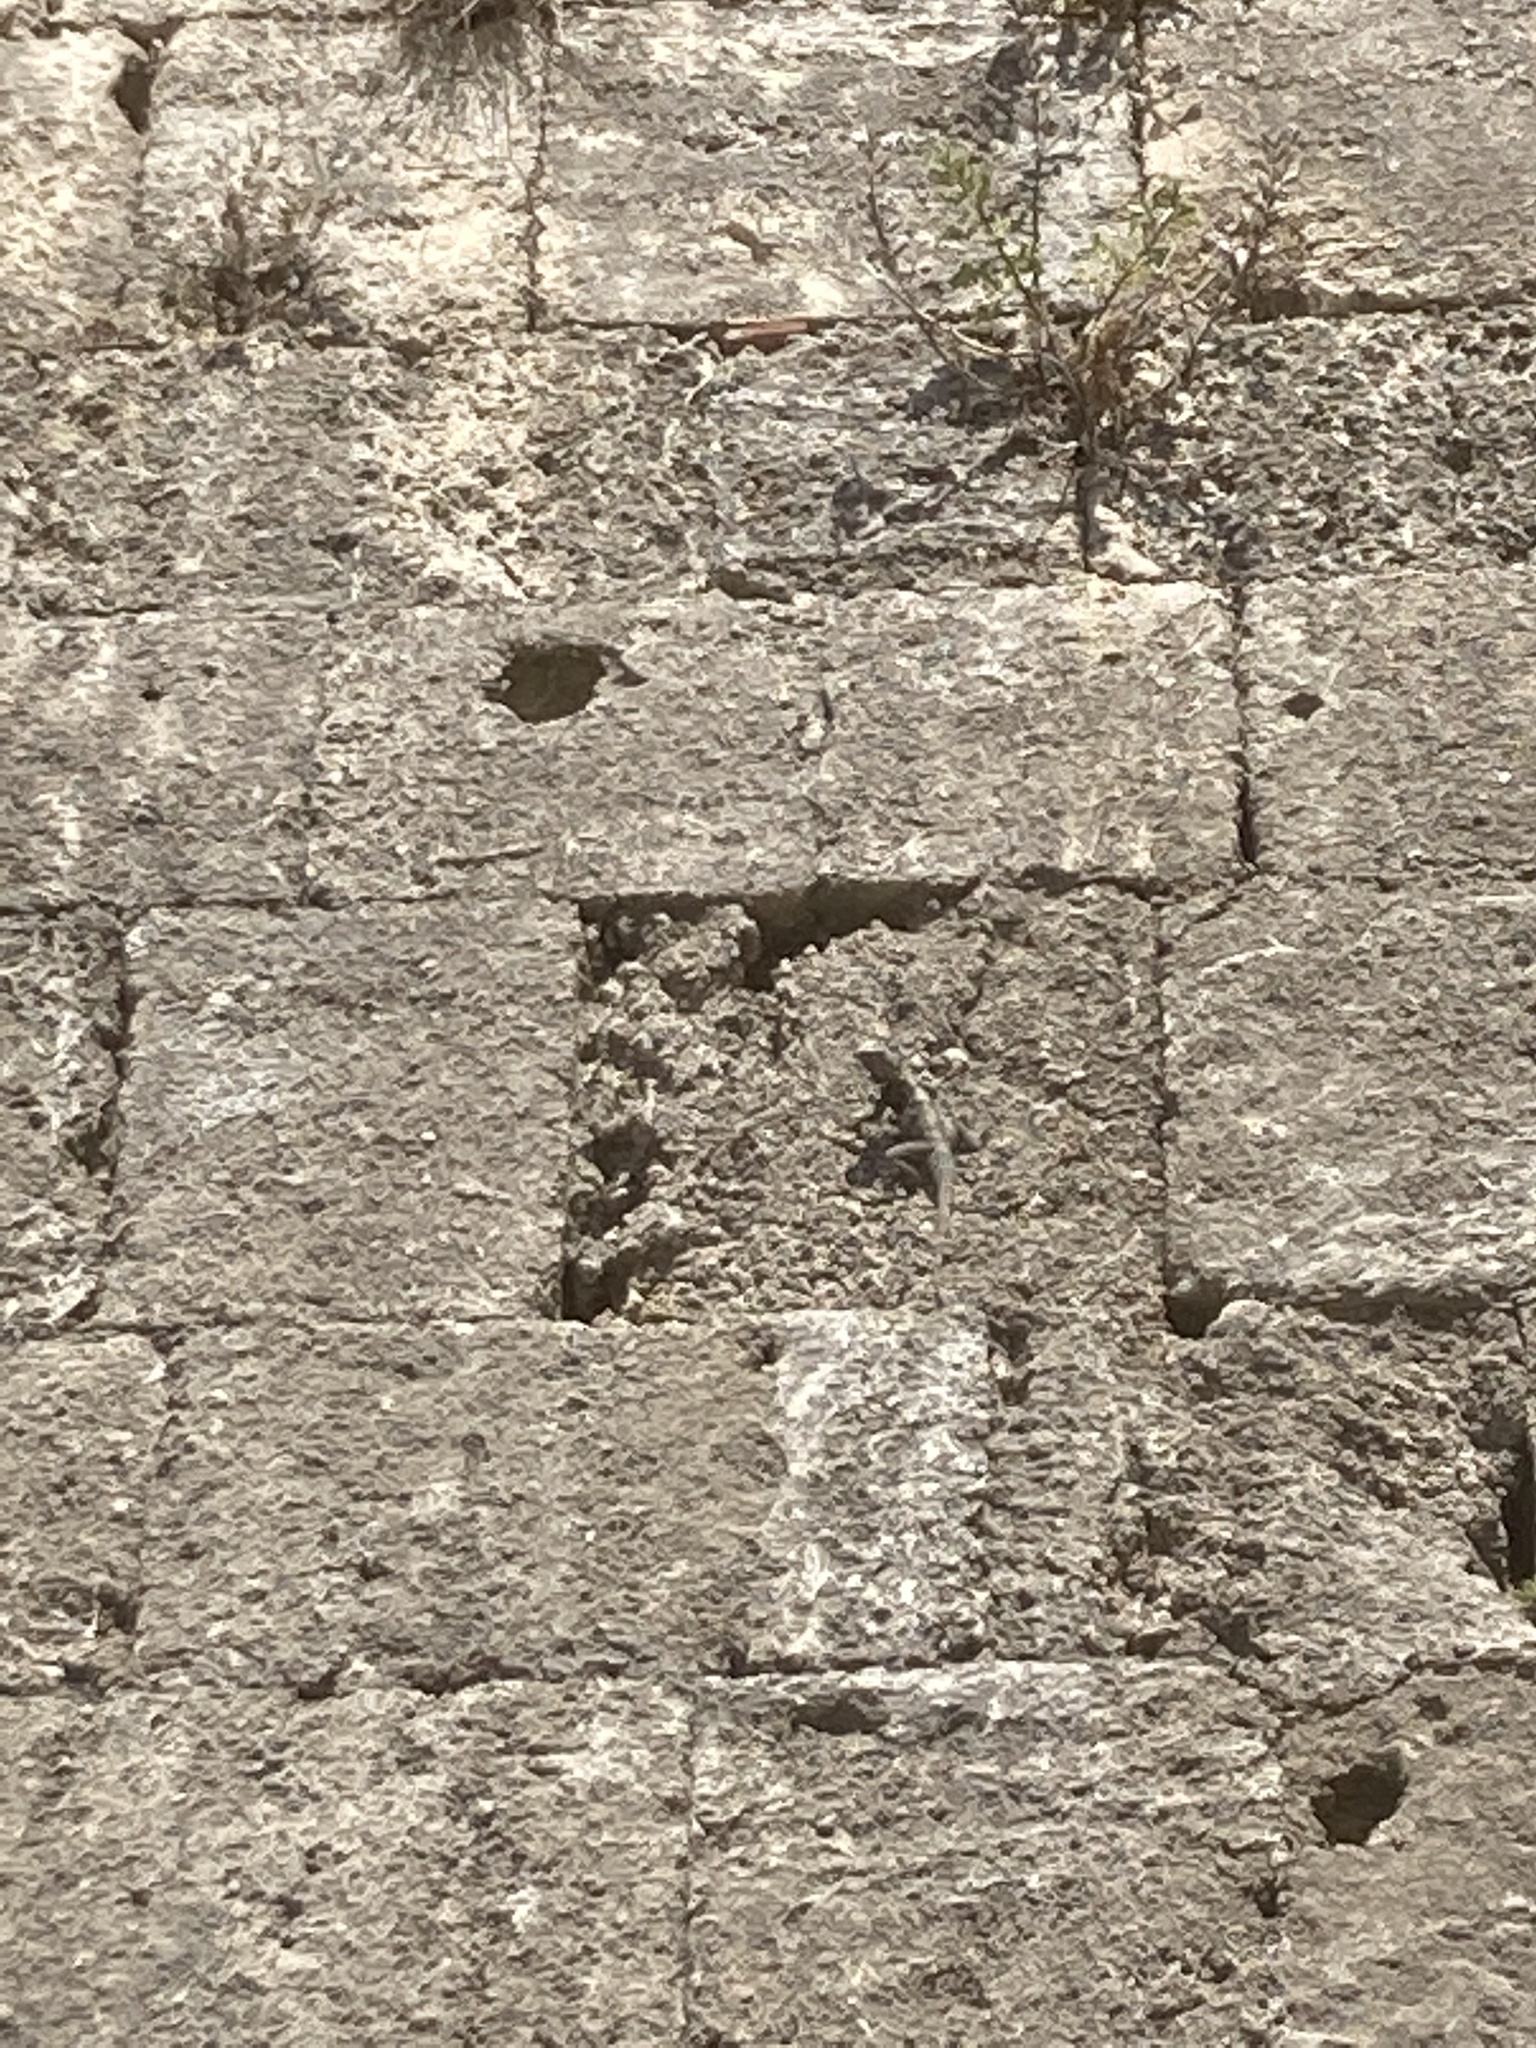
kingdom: Animalia
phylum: Chordata
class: Squamata
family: Agamidae
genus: Stellagama
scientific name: Stellagama stellio
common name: Starred agama
